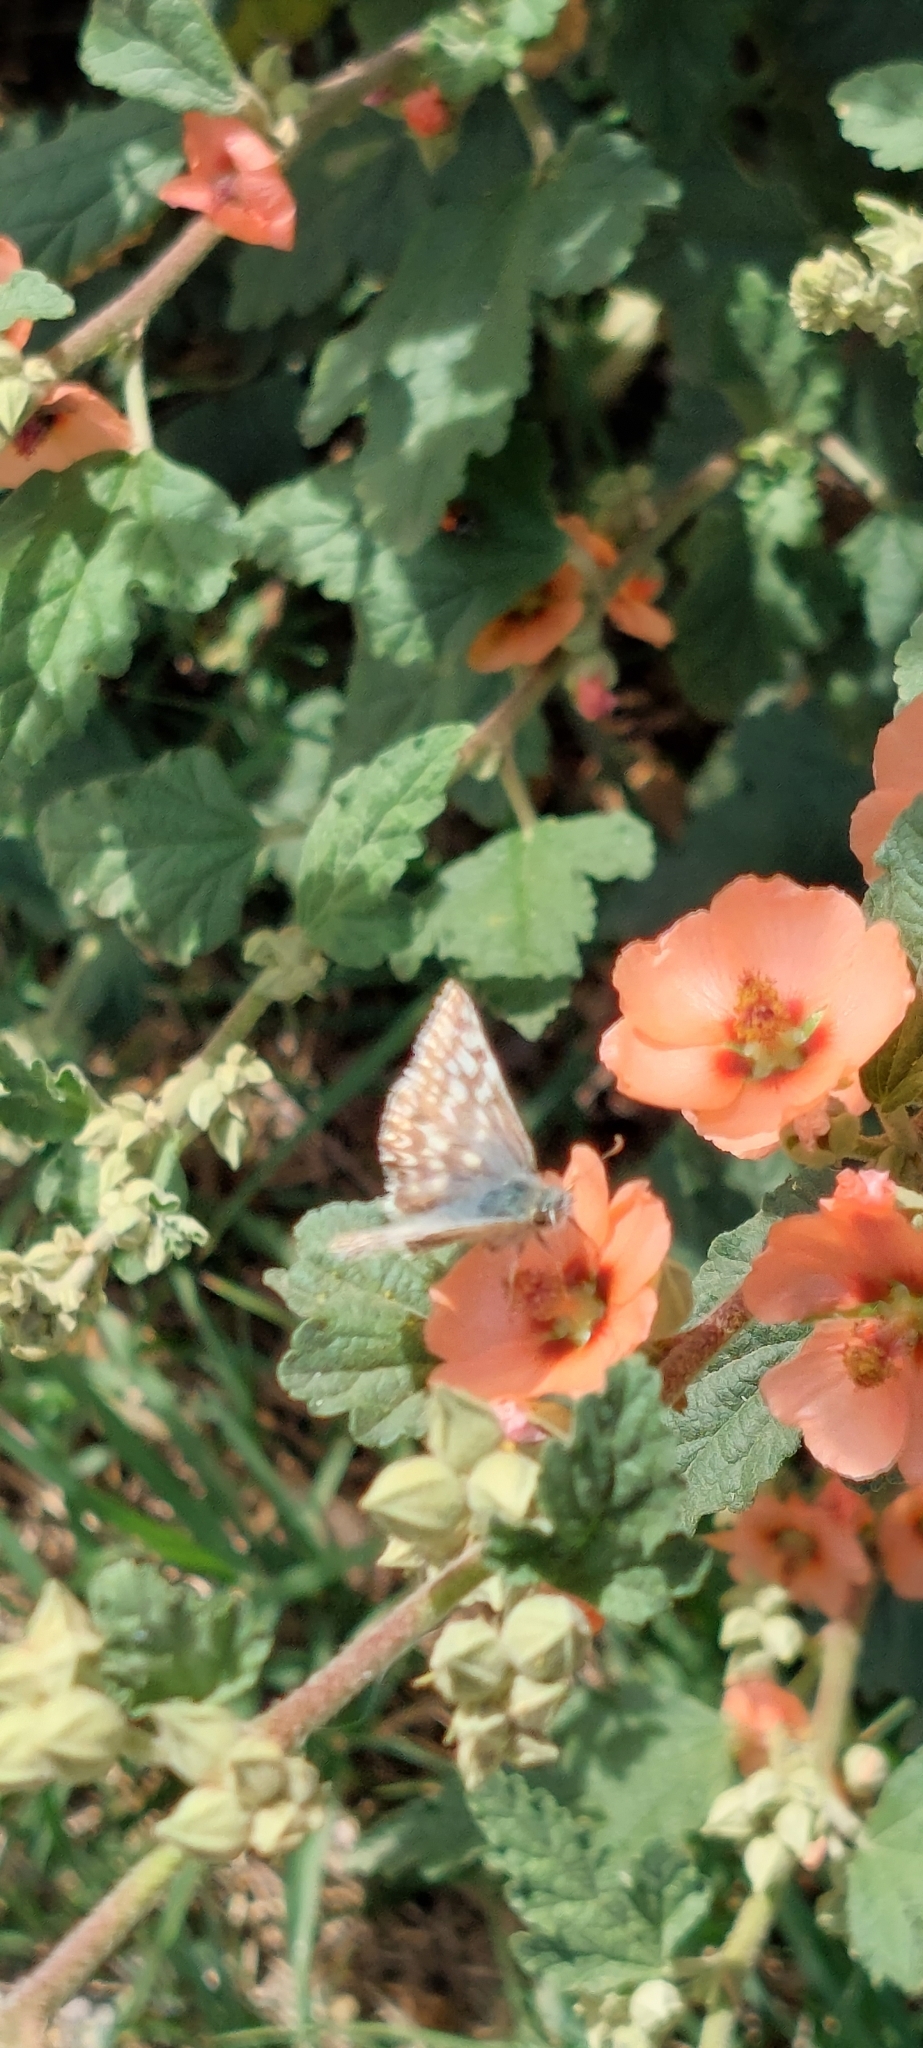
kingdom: Animalia
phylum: Arthropoda
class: Insecta
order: Lepidoptera
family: Hesperiidae
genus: Heliopetes
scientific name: Heliopetes americanus
